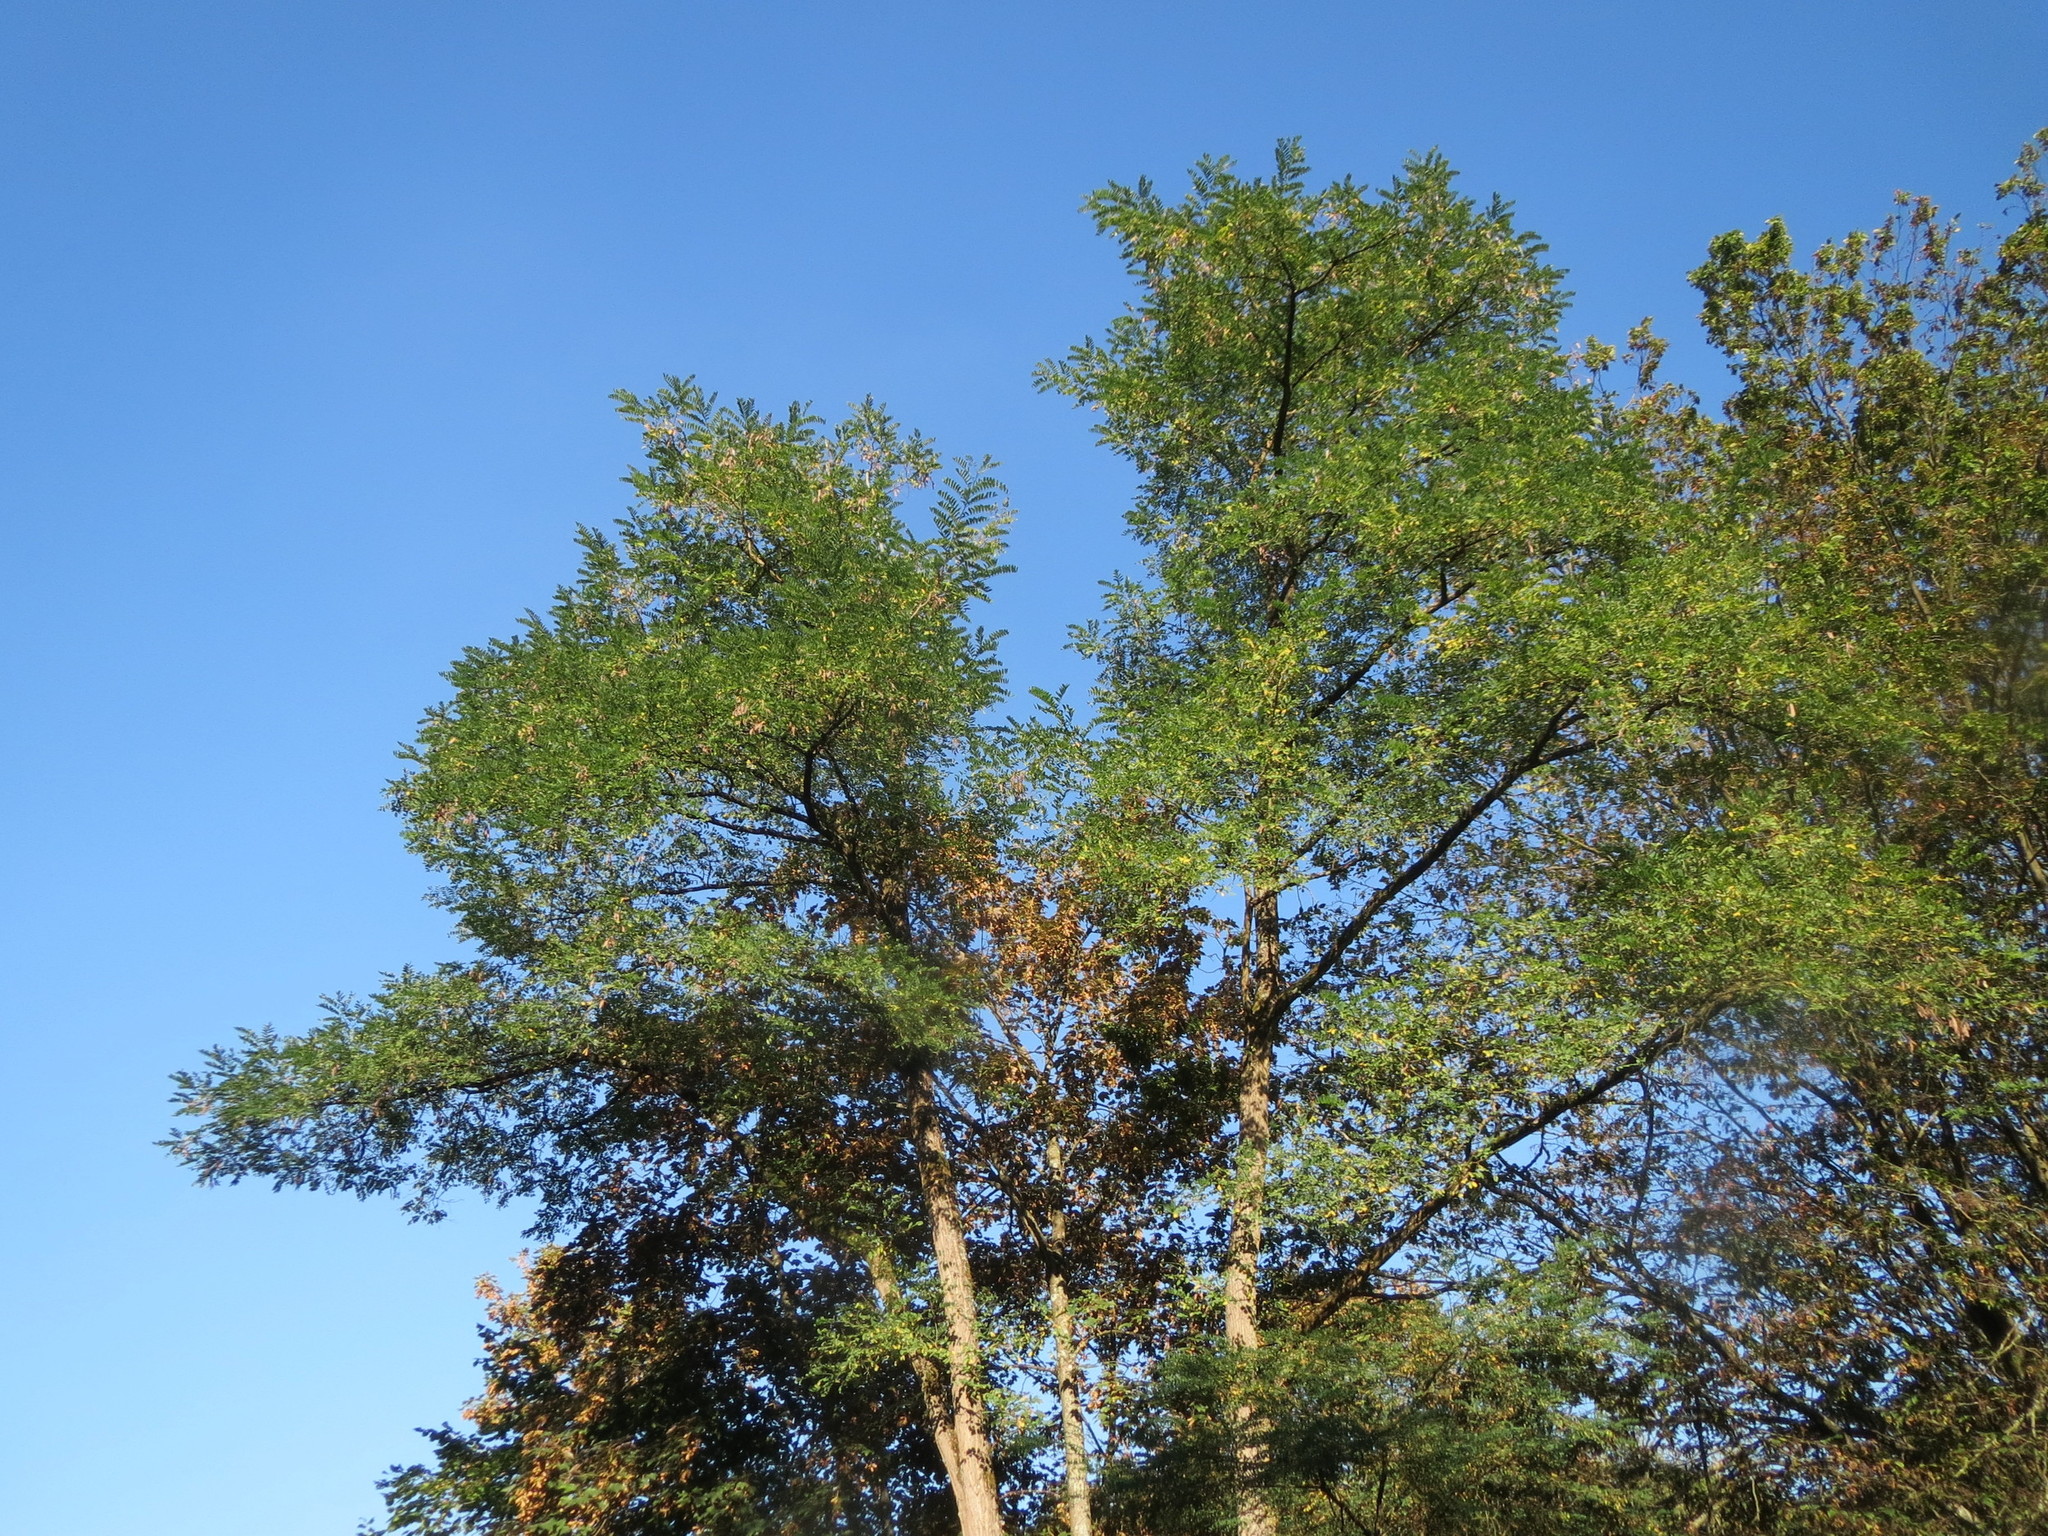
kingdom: Plantae
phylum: Tracheophyta
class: Magnoliopsida
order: Fabales
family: Fabaceae
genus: Robinia
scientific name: Robinia pseudoacacia
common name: Black locust
